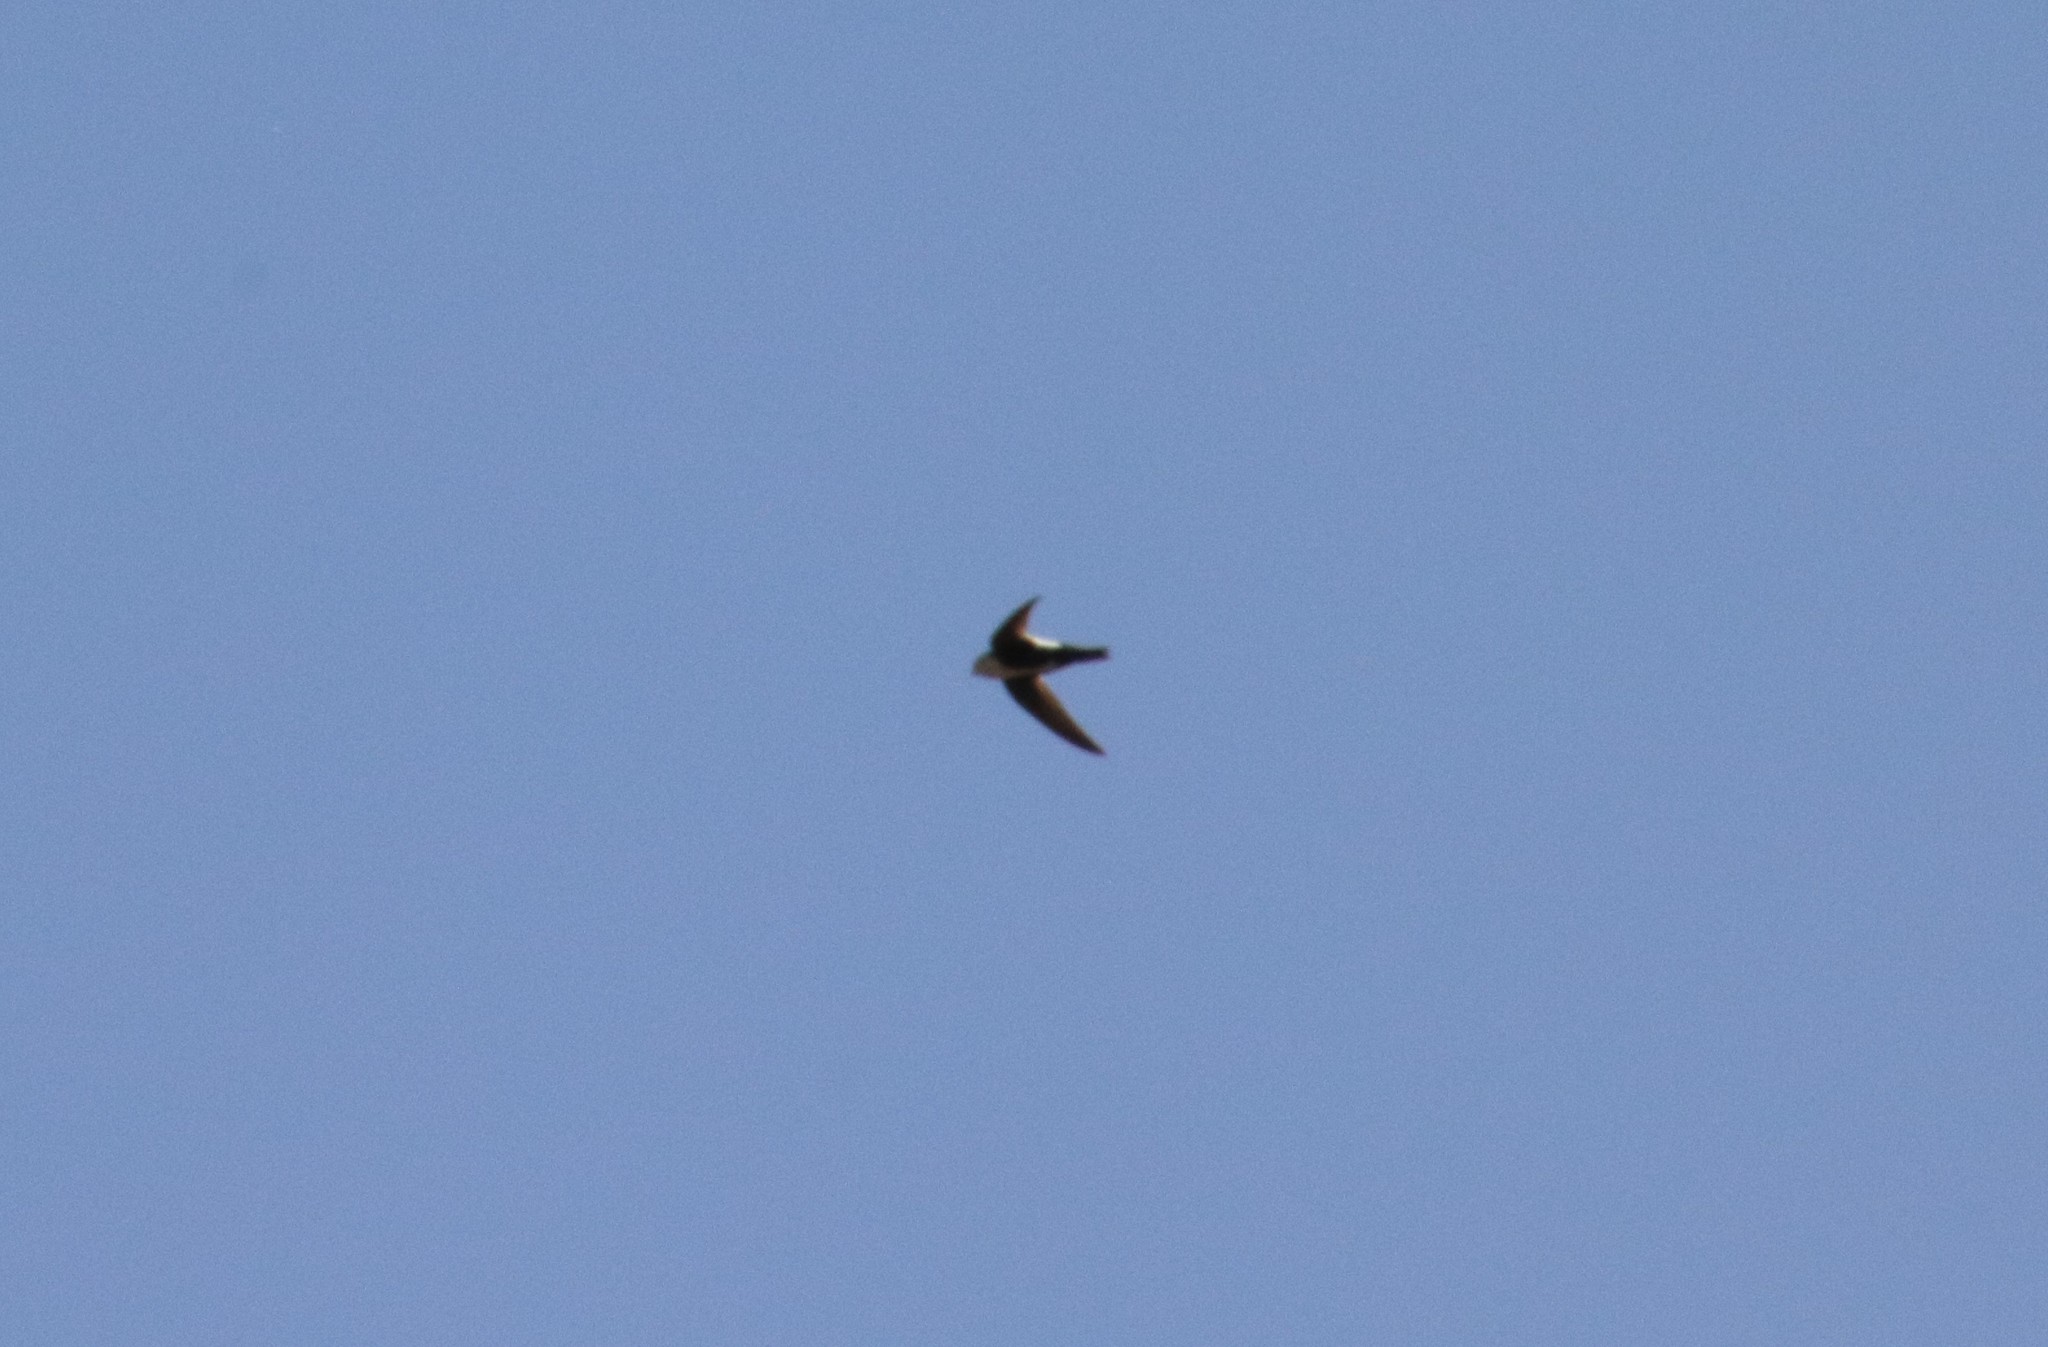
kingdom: Animalia
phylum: Chordata
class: Aves
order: Apodiformes
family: Apodidae
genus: Aeronautes
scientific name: Aeronautes saxatalis
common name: White-throated swift
